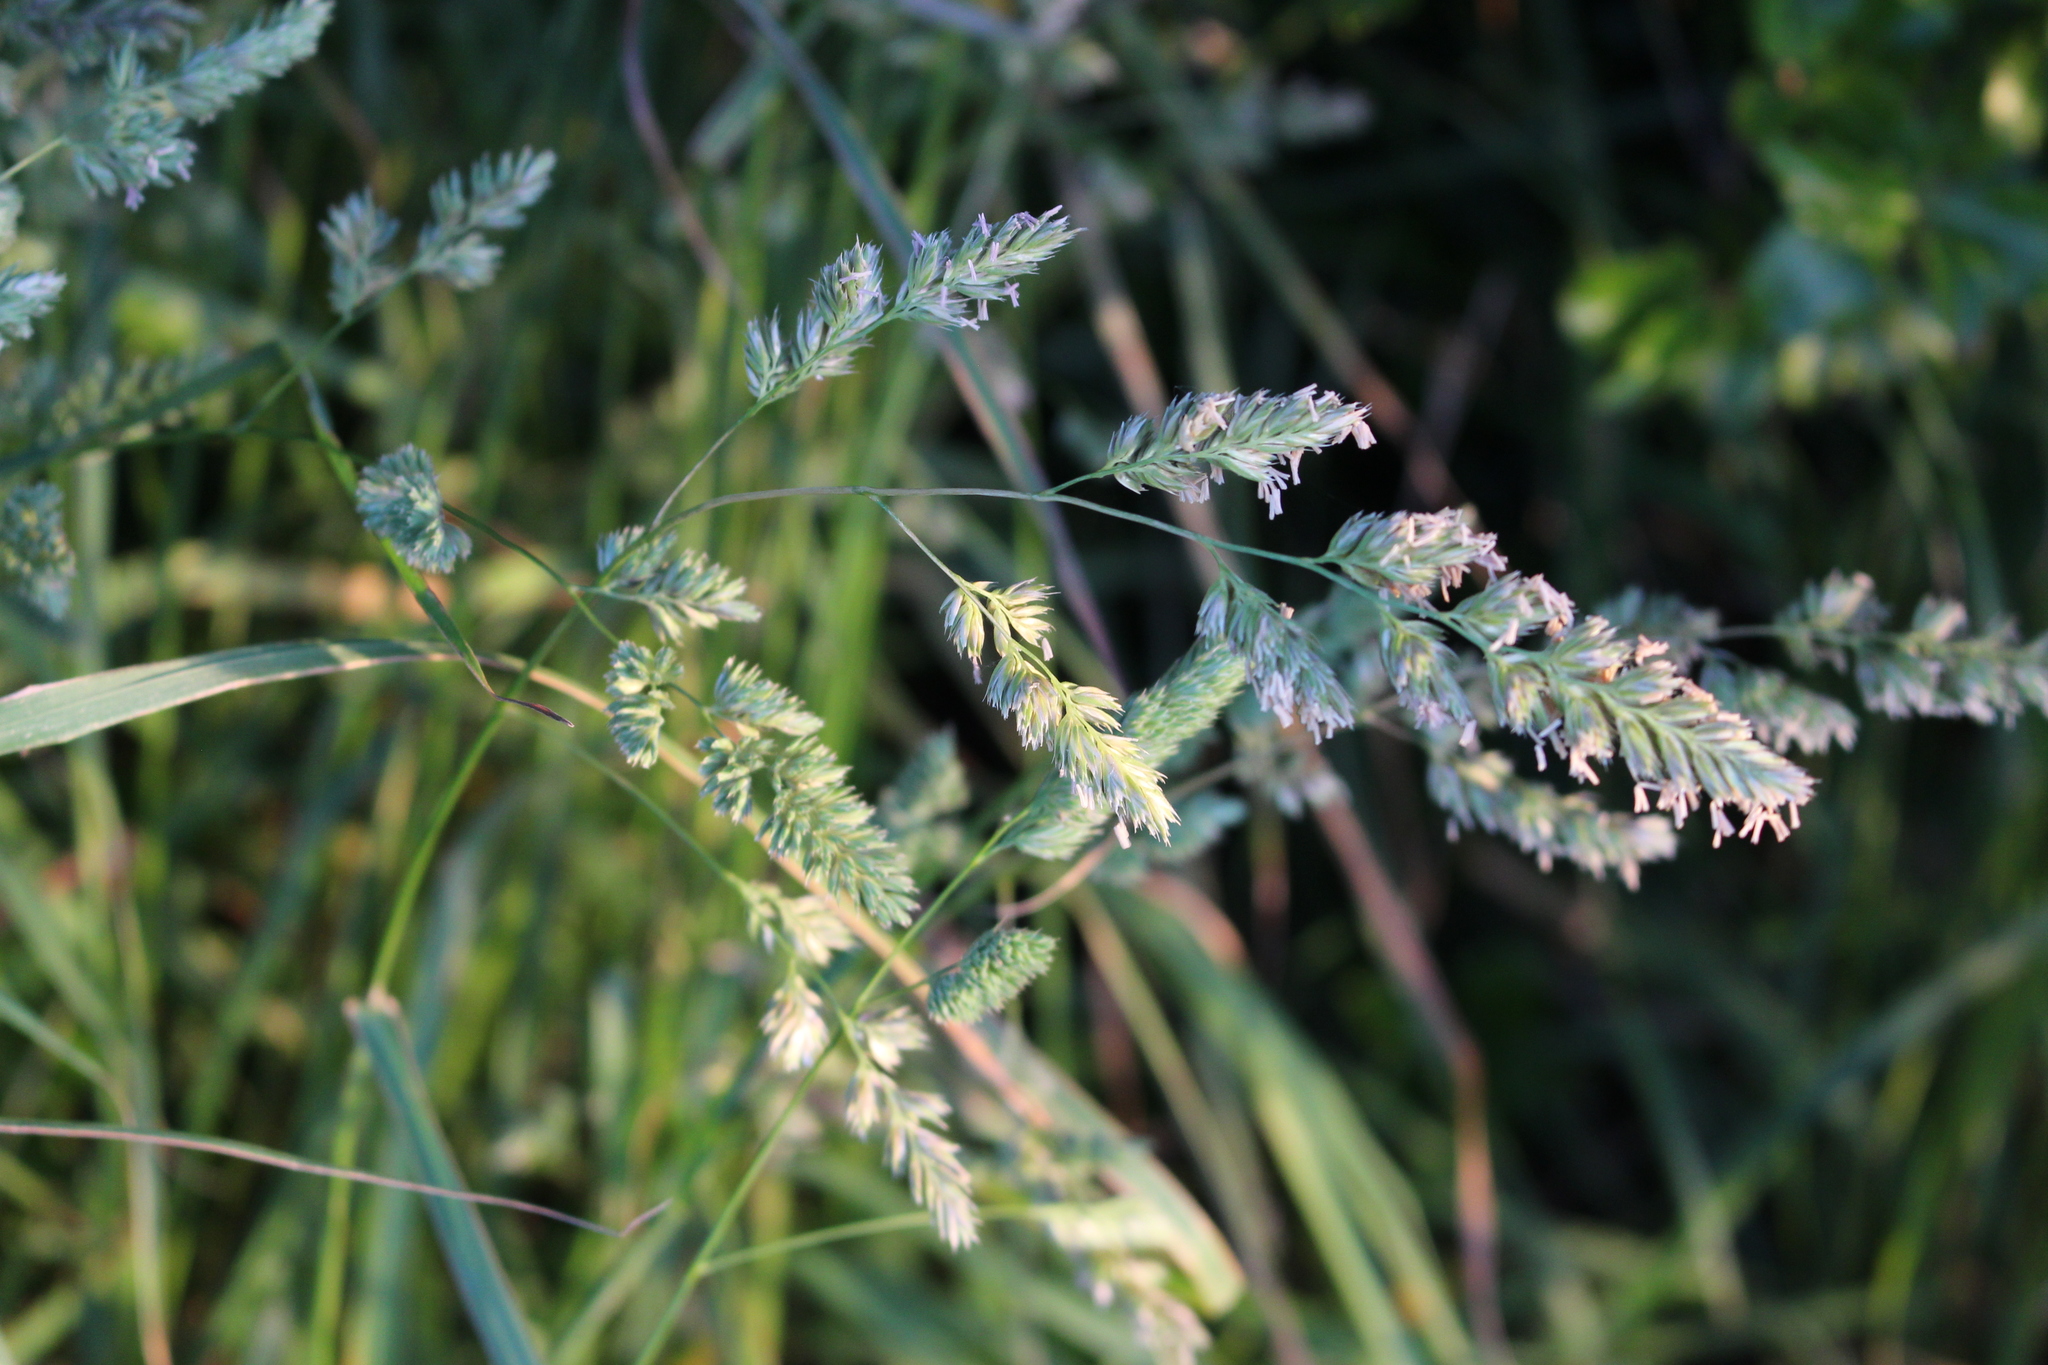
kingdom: Plantae
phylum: Tracheophyta
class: Liliopsida
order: Poales
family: Poaceae
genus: Dactylis
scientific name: Dactylis glomerata
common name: Orchardgrass
